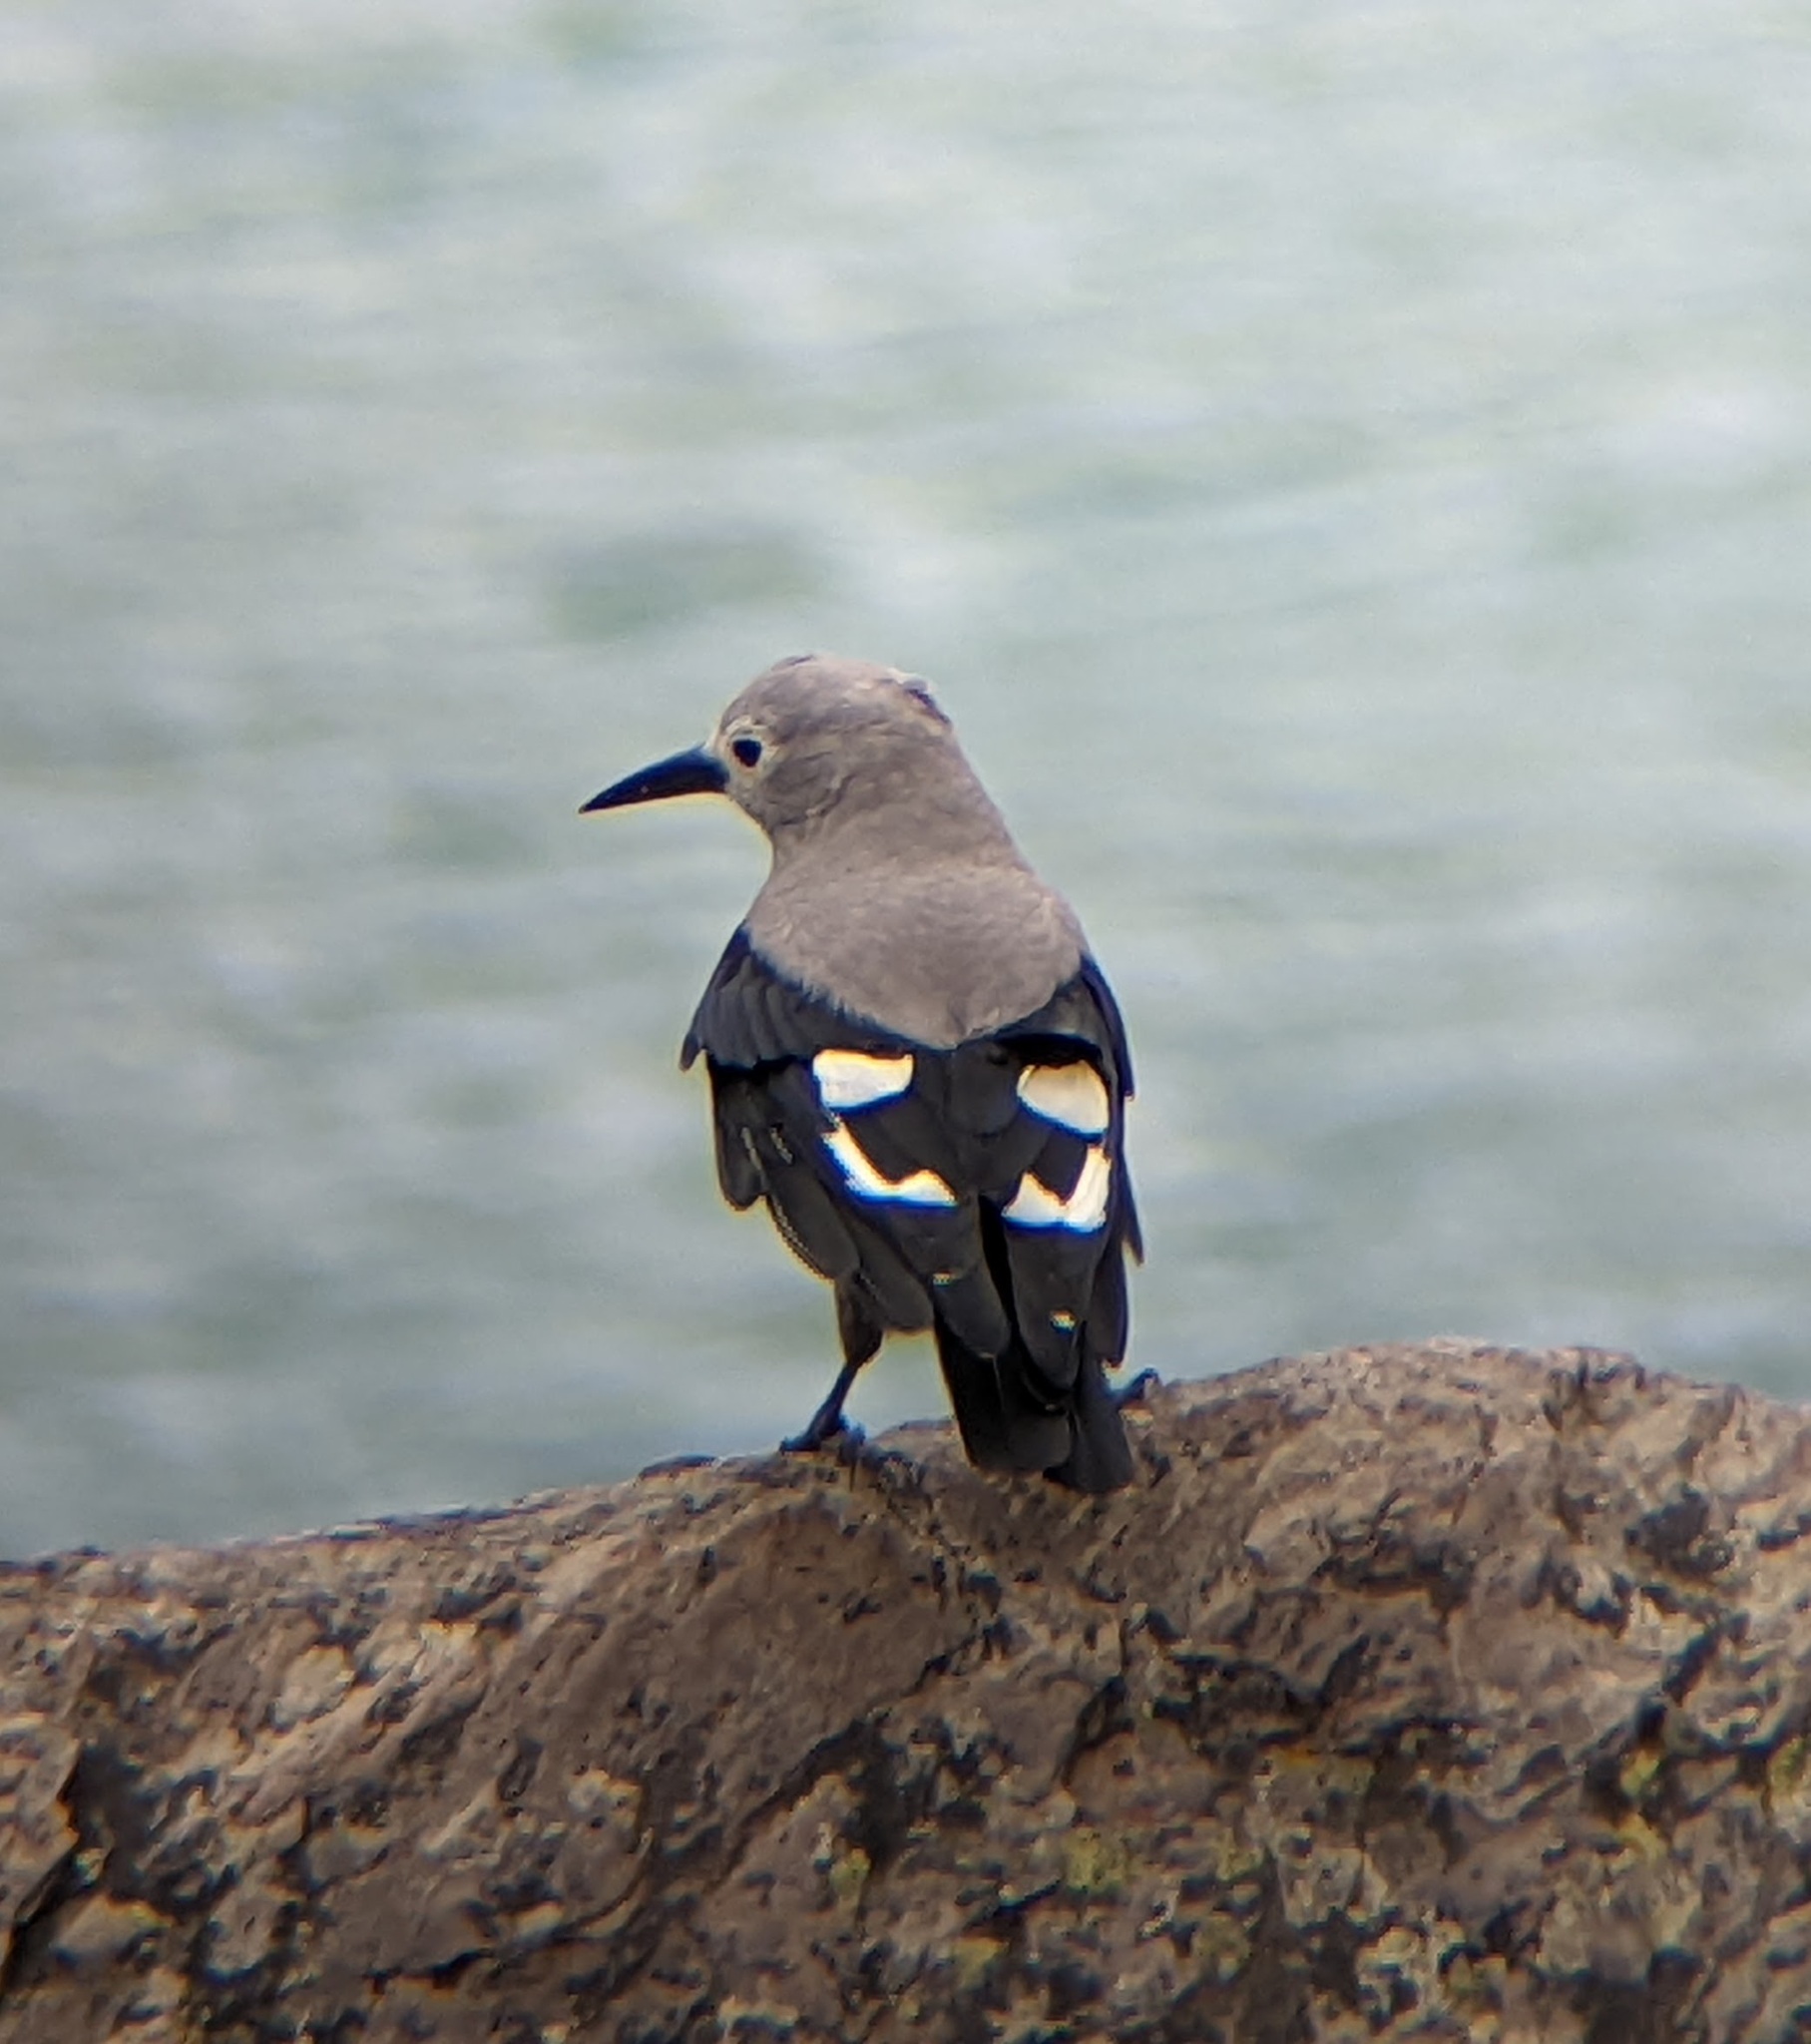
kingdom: Animalia
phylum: Chordata
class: Aves
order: Passeriformes
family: Corvidae
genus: Nucifraga
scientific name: Nucifraga columbiana
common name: Clark's nutcracker
